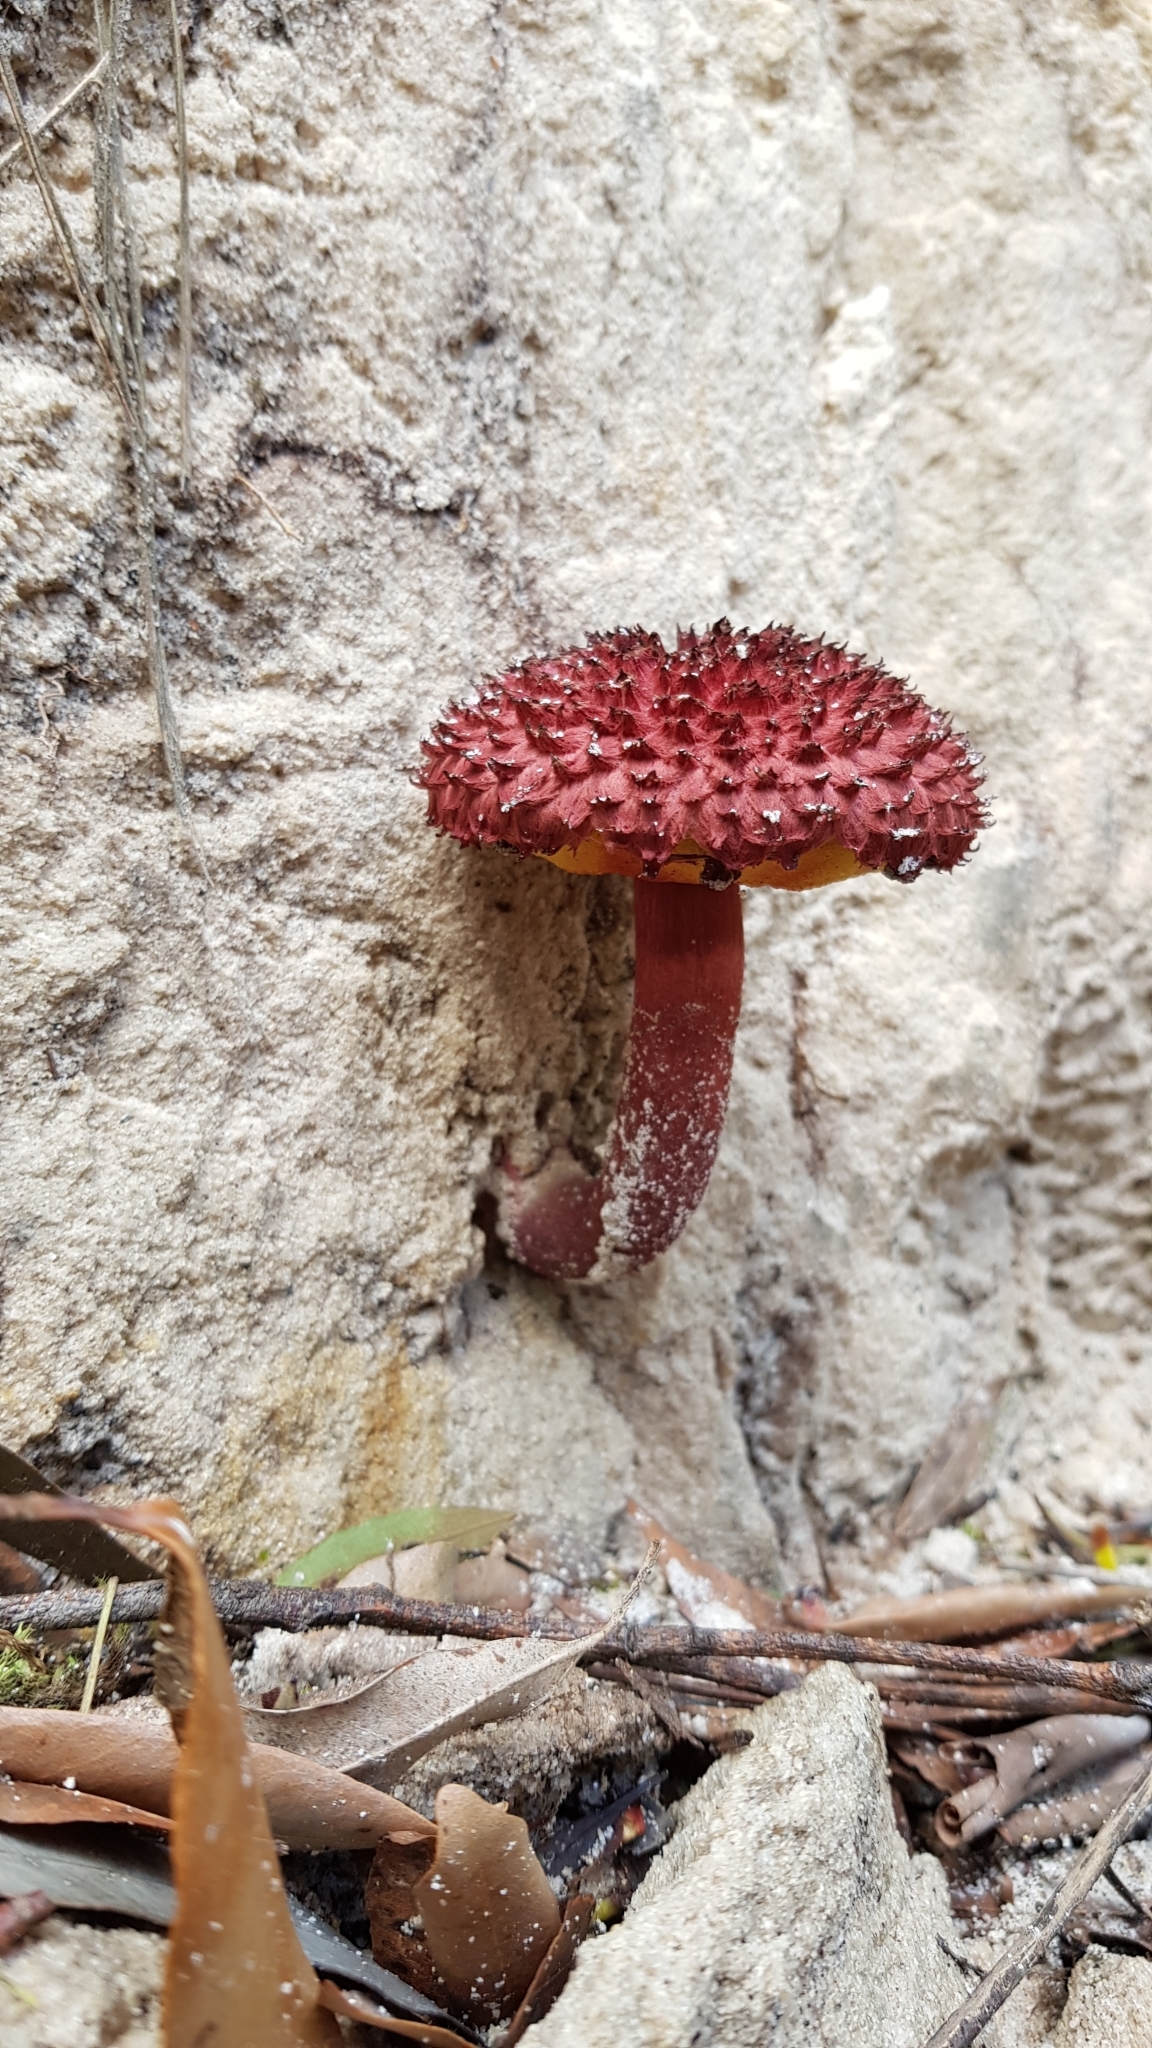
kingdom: Fungi
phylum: Basidiomycota
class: Agaricomycetes
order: Boletales
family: Boletaceae
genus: Boletellus
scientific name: Boletellus emodensis
